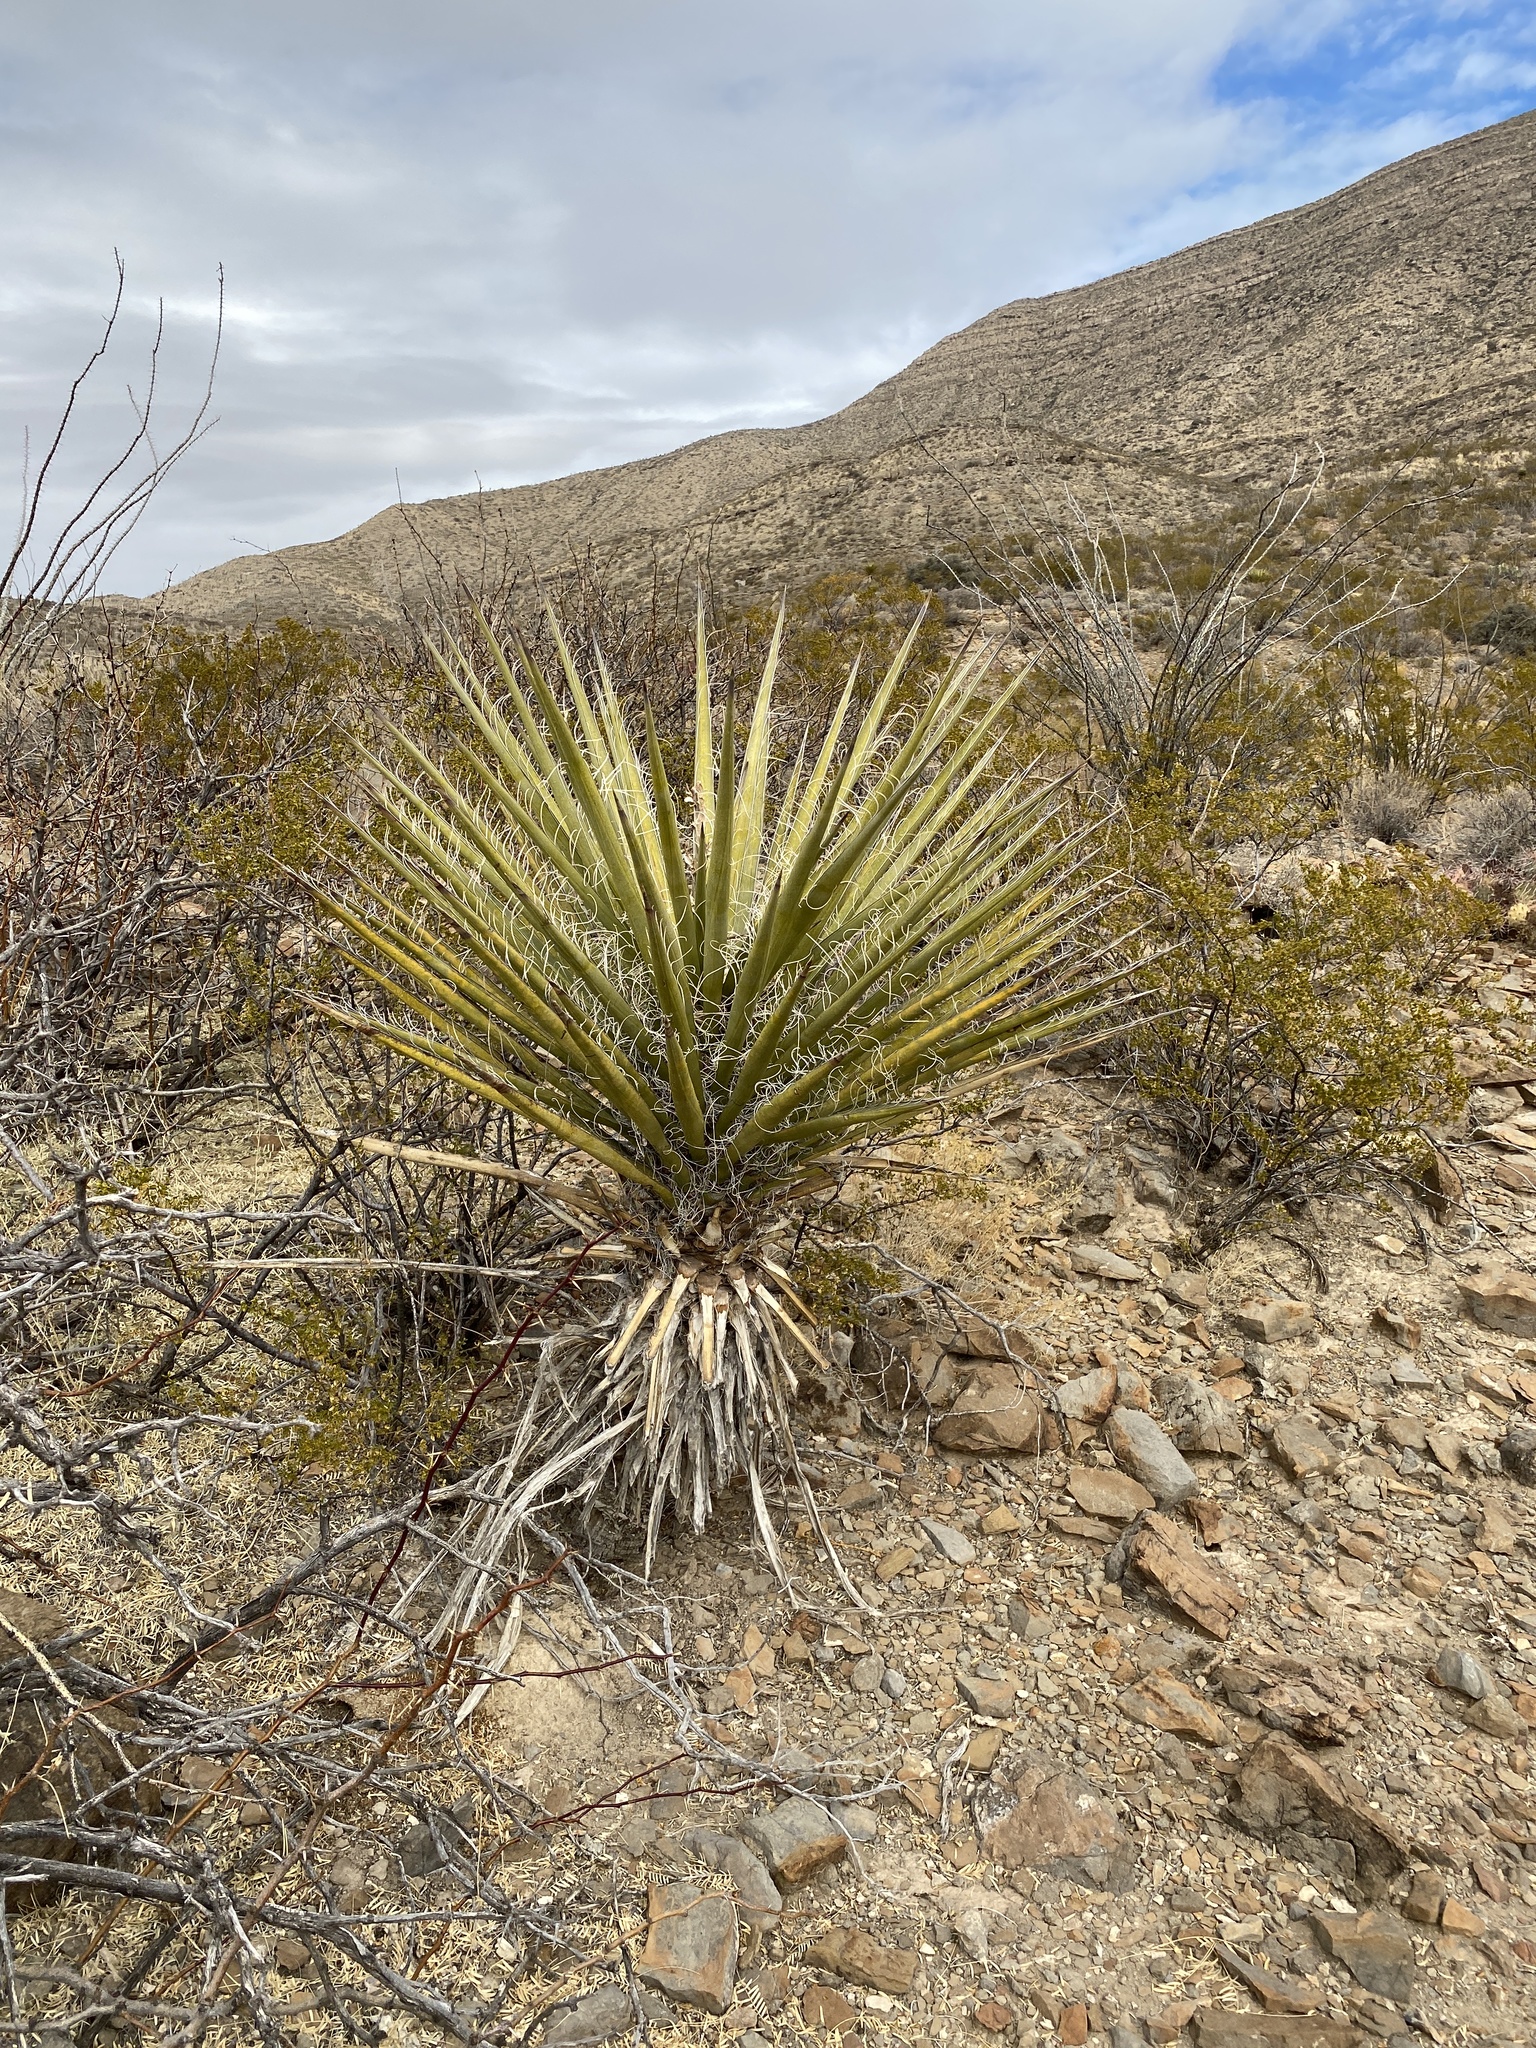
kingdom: Plantae
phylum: Tracheophyta
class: Liliopsida
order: Asparagales
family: Asparagaceae
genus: Yucca
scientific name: Yucca treculiana
